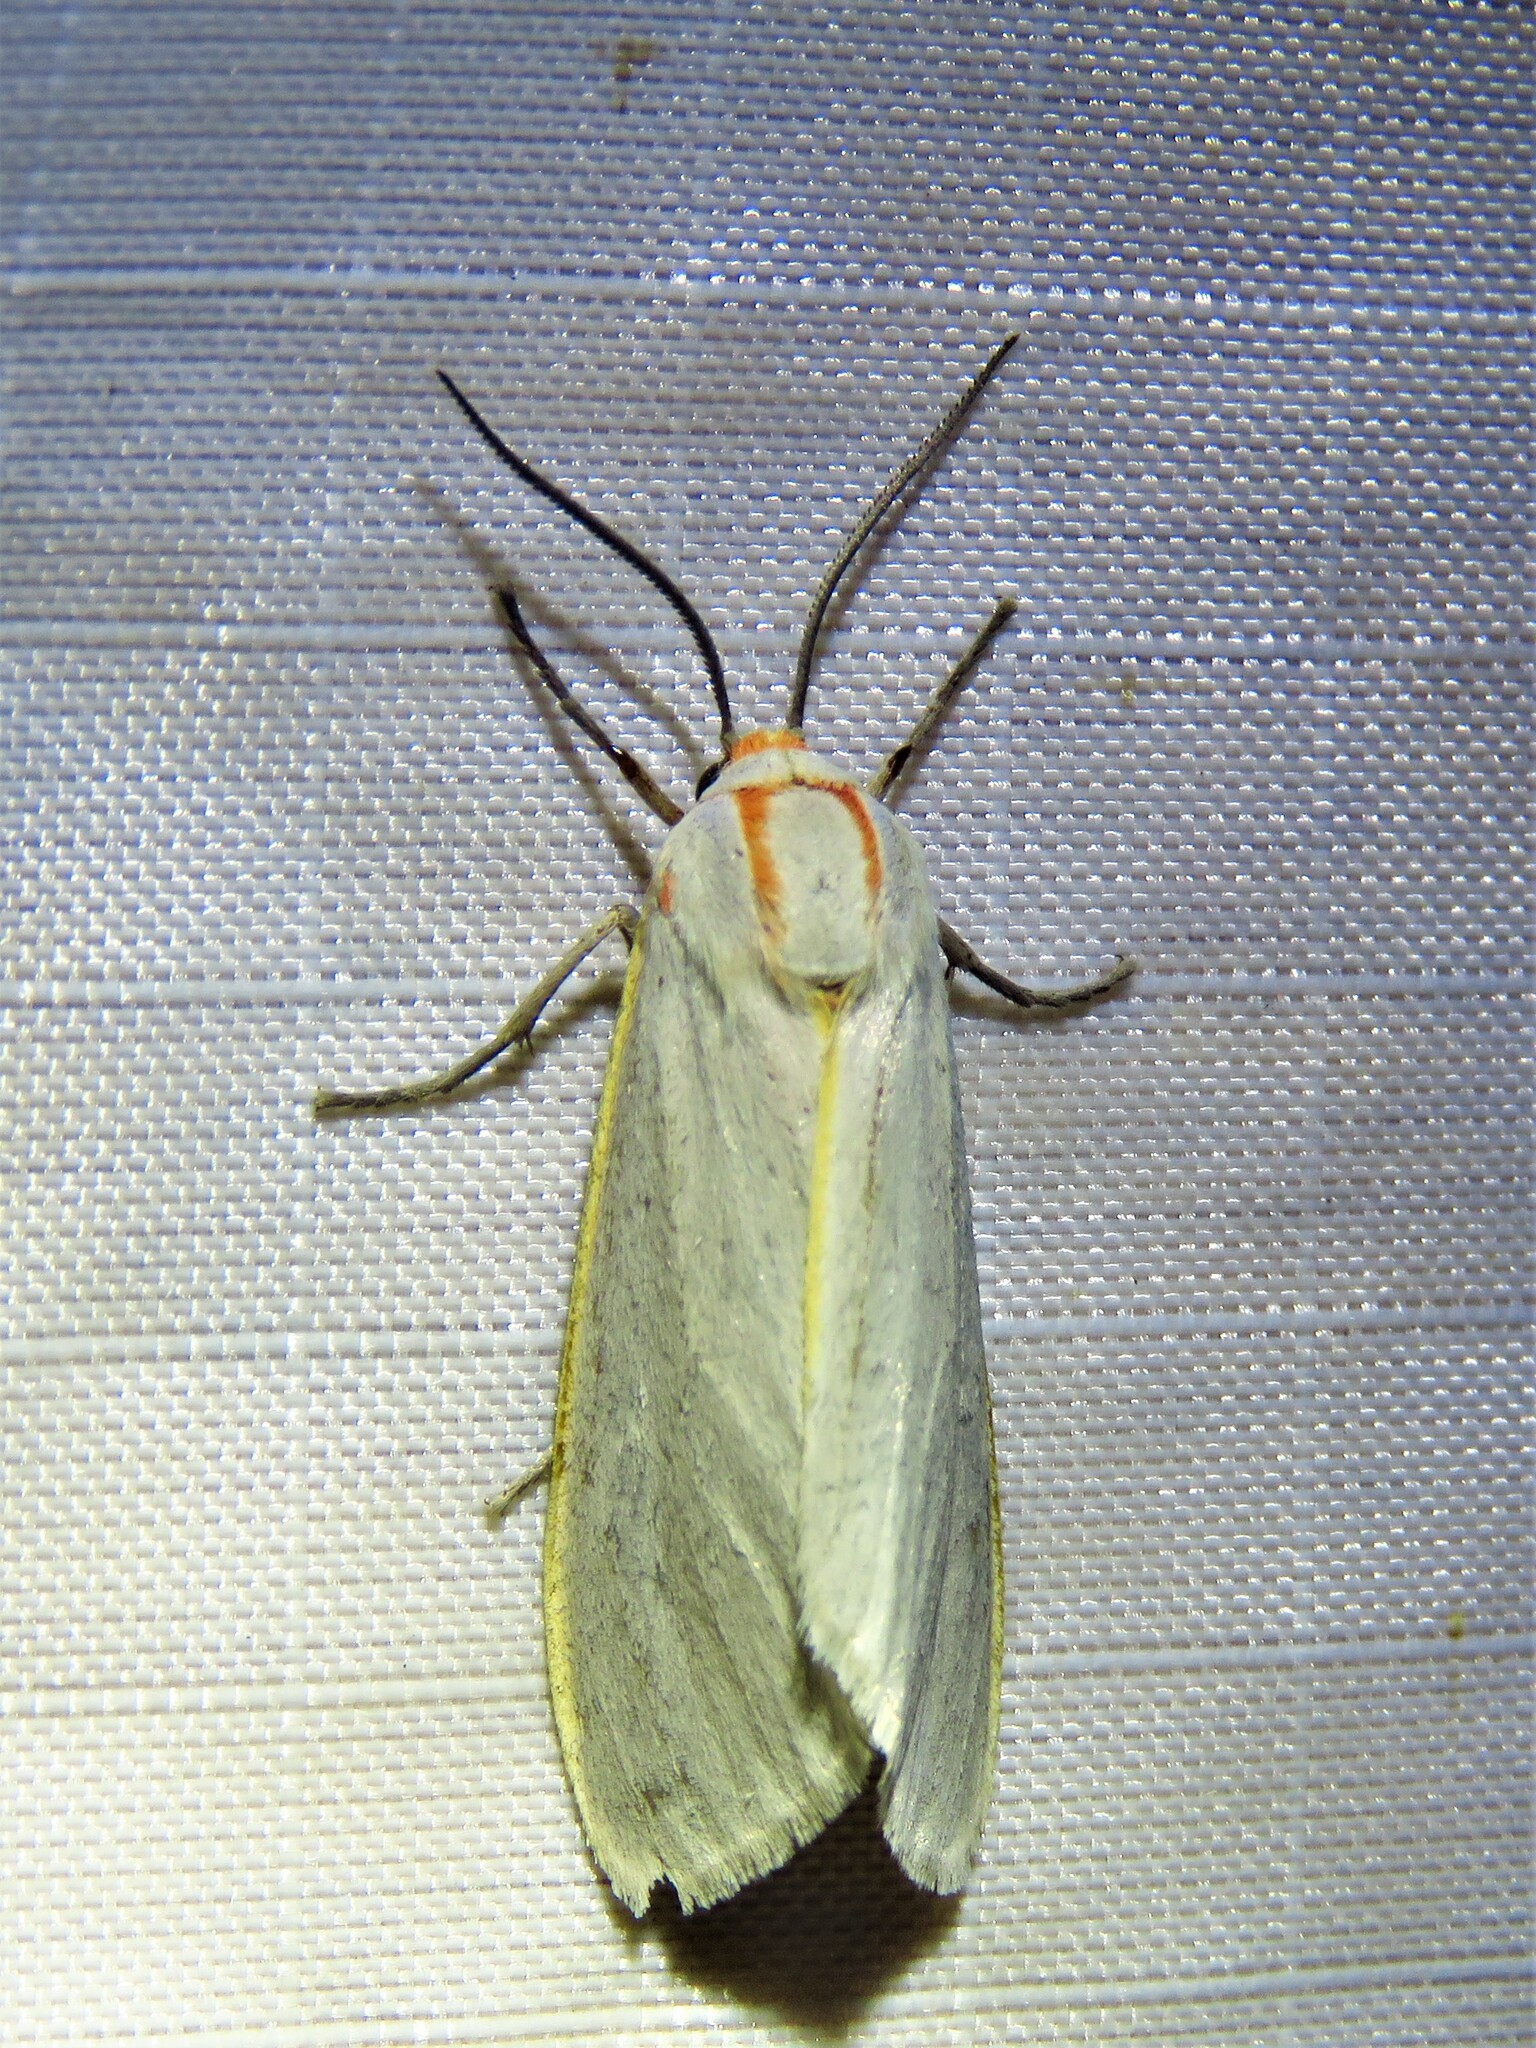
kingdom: Animalia
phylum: Arthropoda
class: Insecta
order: Lepidoptera
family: Erebidae
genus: Pygarctia
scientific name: Pygarctia abdominalis
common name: Yellow-edged pygarctia moth
